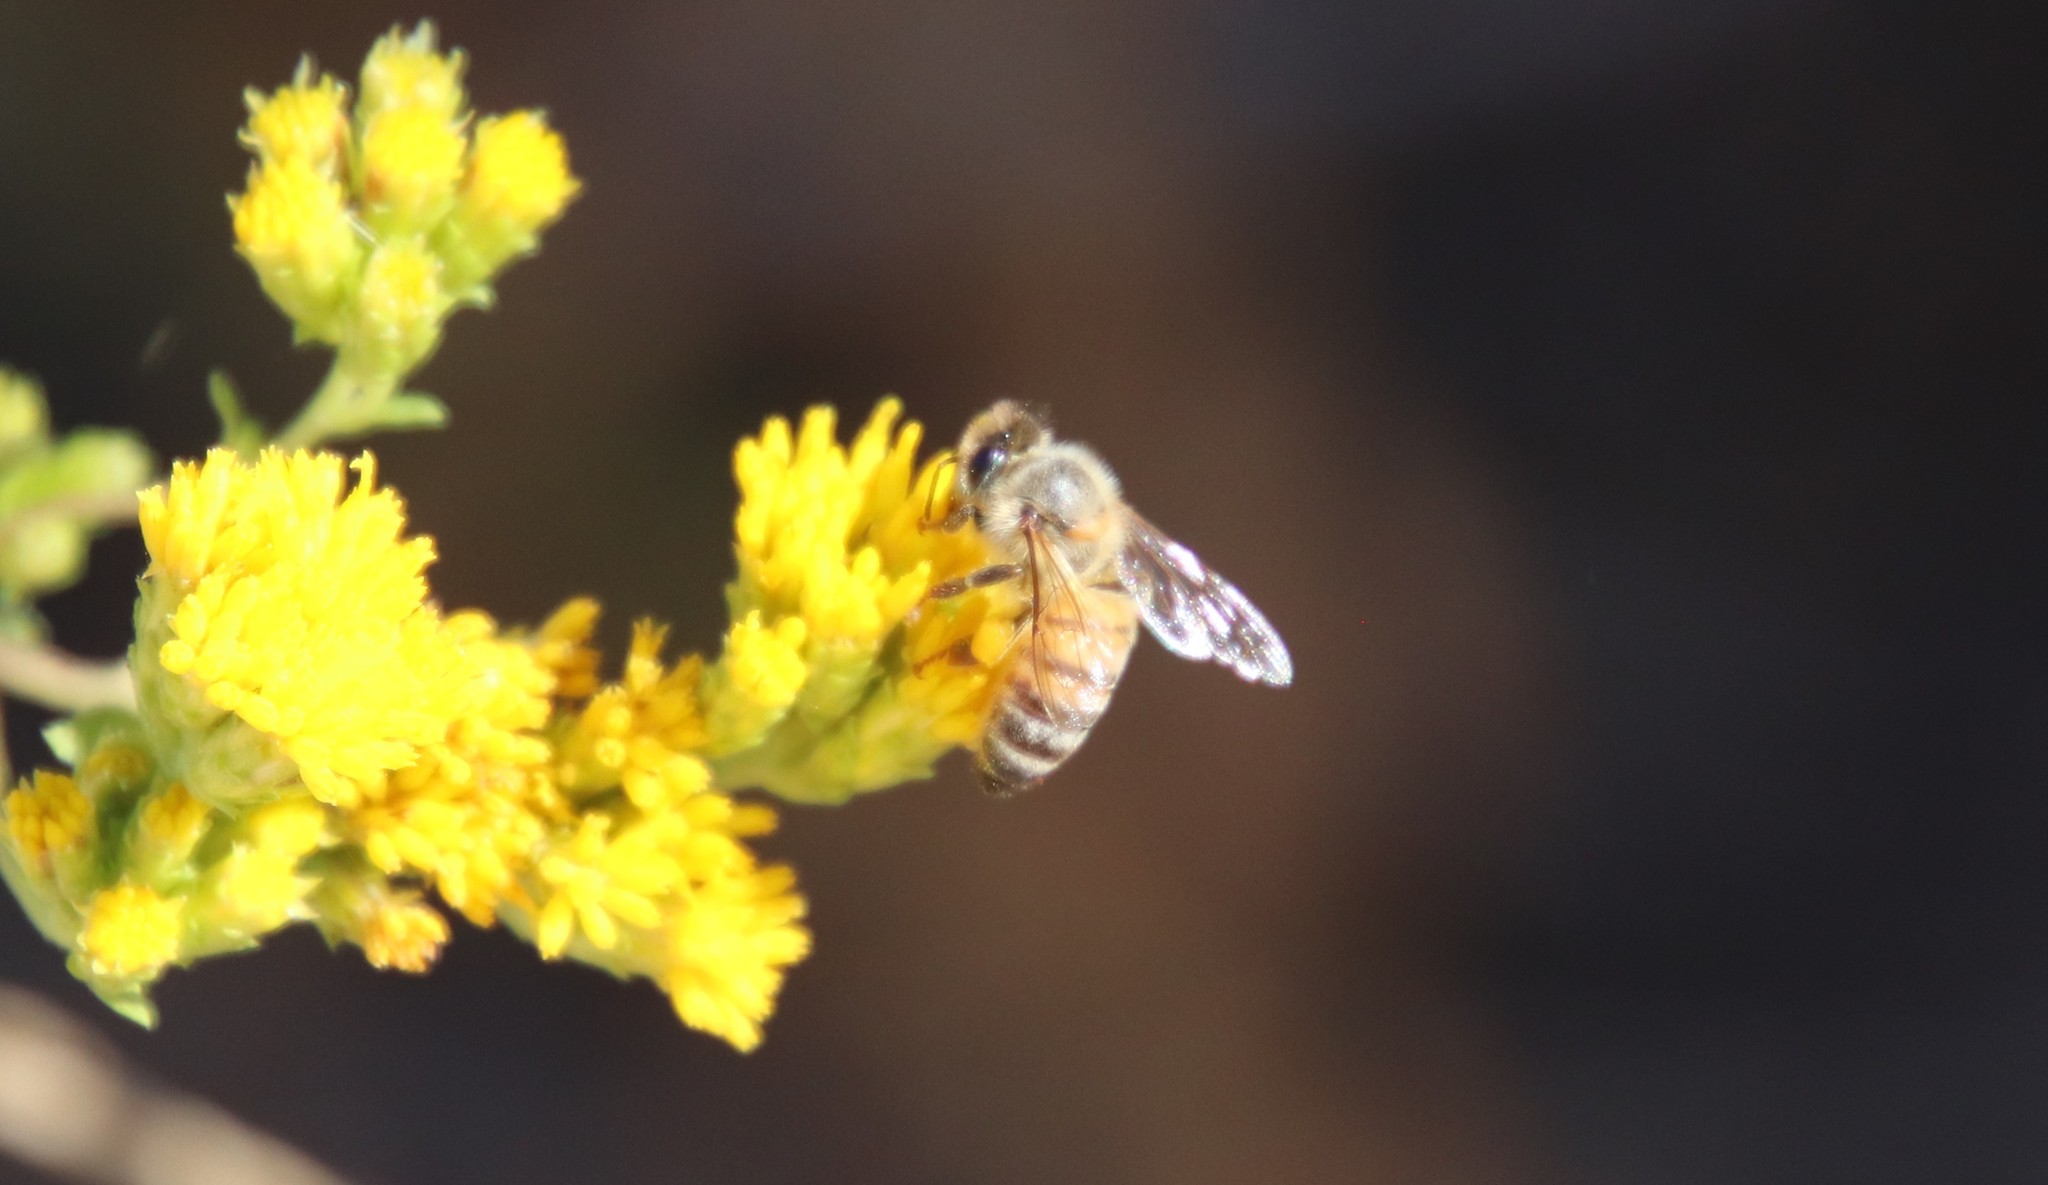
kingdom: Animalia
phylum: Arthropoda
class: Insecta
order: Hymenoptera
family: Apidae
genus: Apis
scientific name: Apis mellifera
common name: Honey bee
